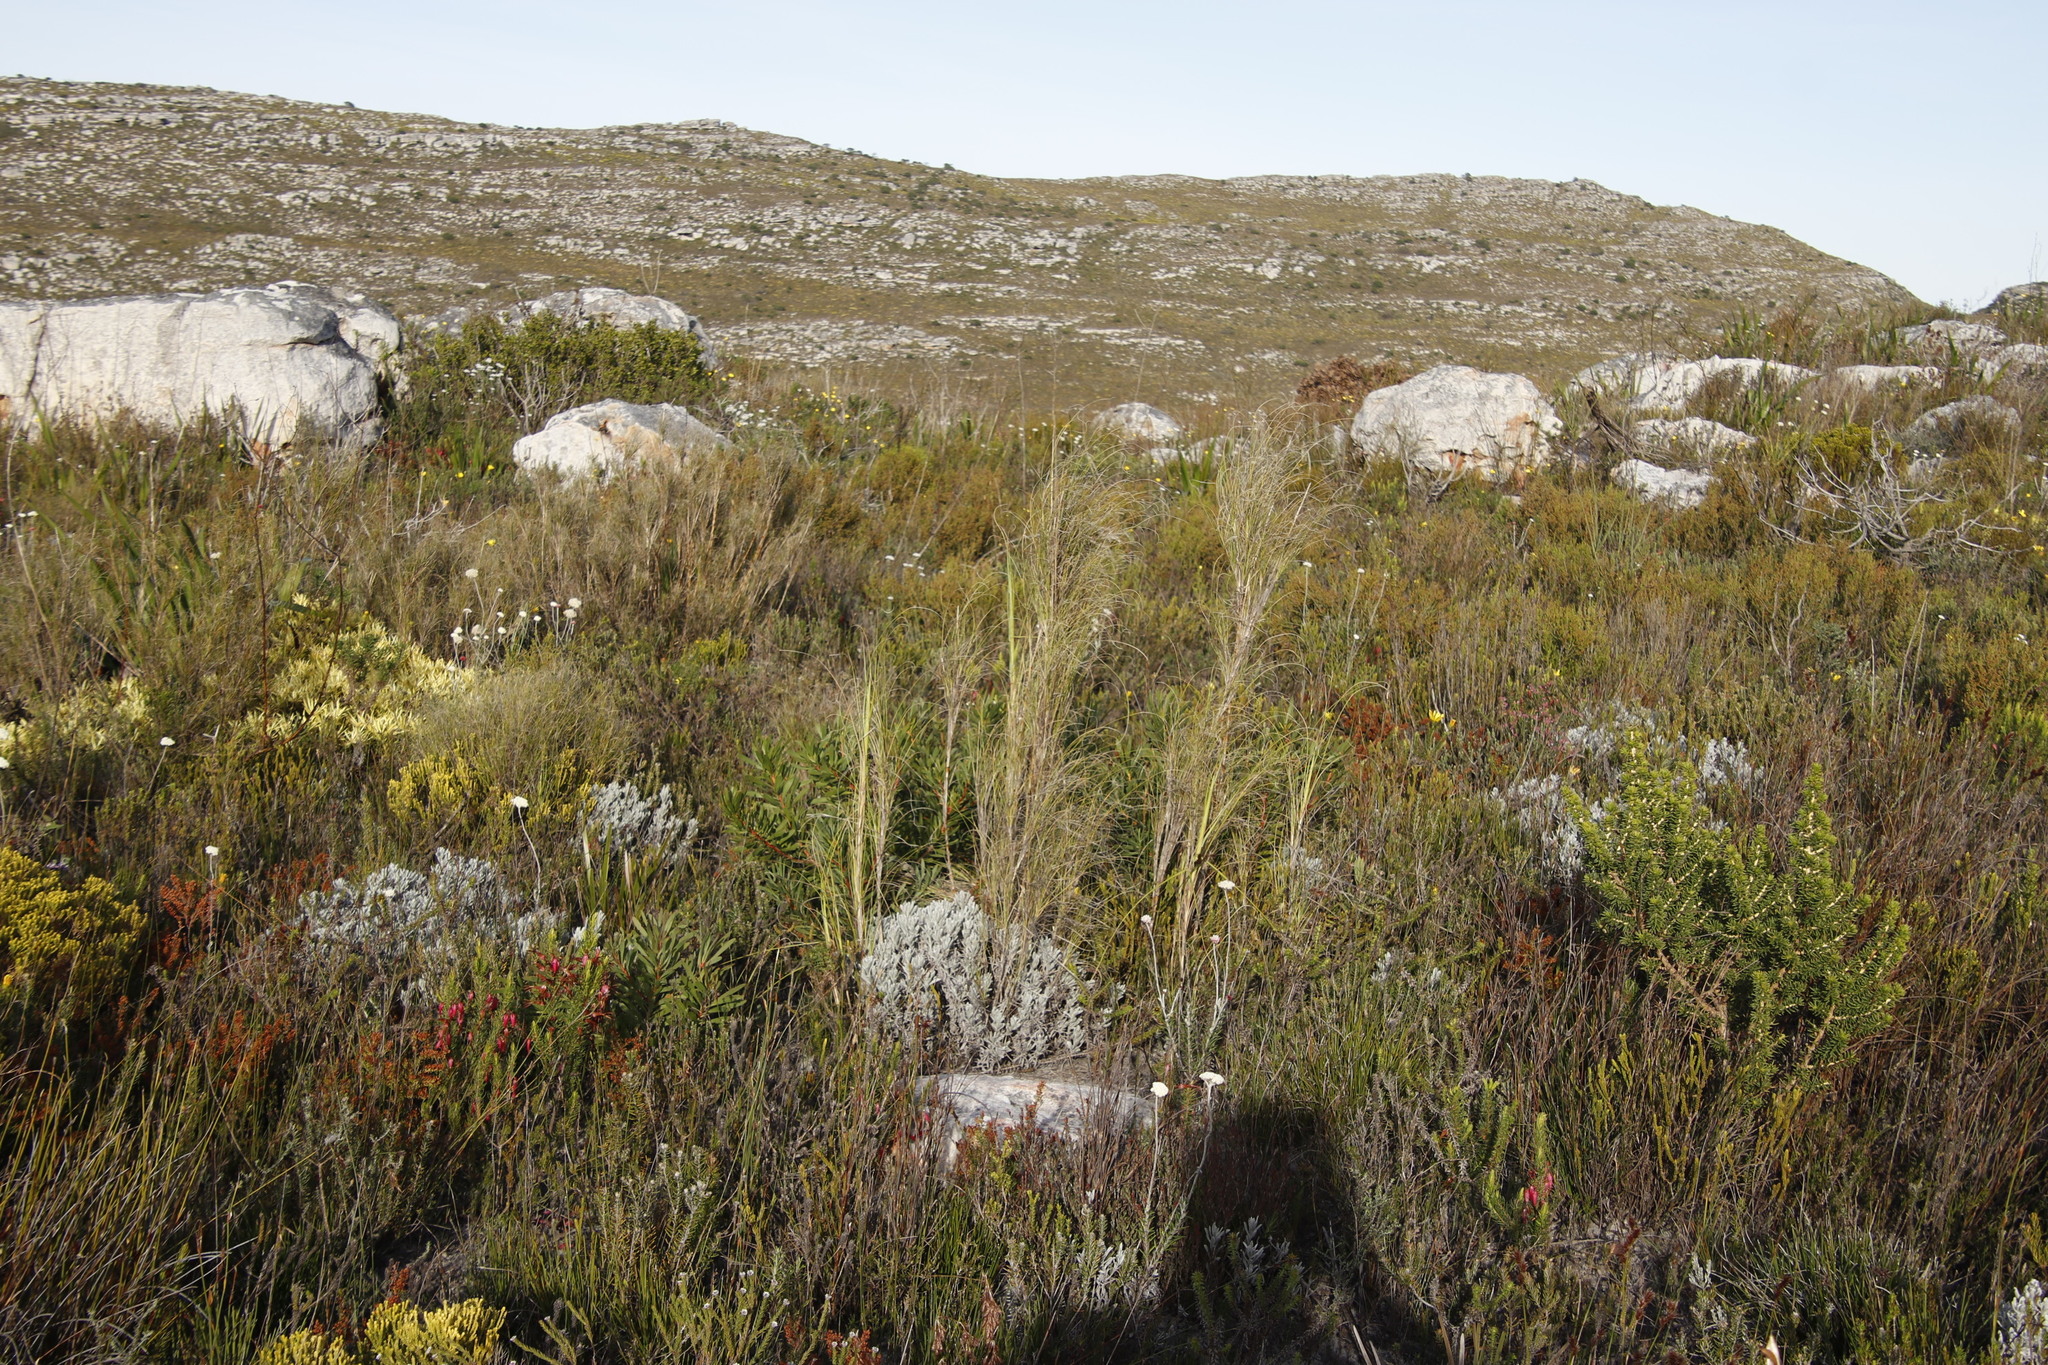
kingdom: Plantae
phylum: Tracheophyta
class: Liliopsida
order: Poales
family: Poaceae
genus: Pseudopentameris
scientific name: Pseudopentameris macrantha
